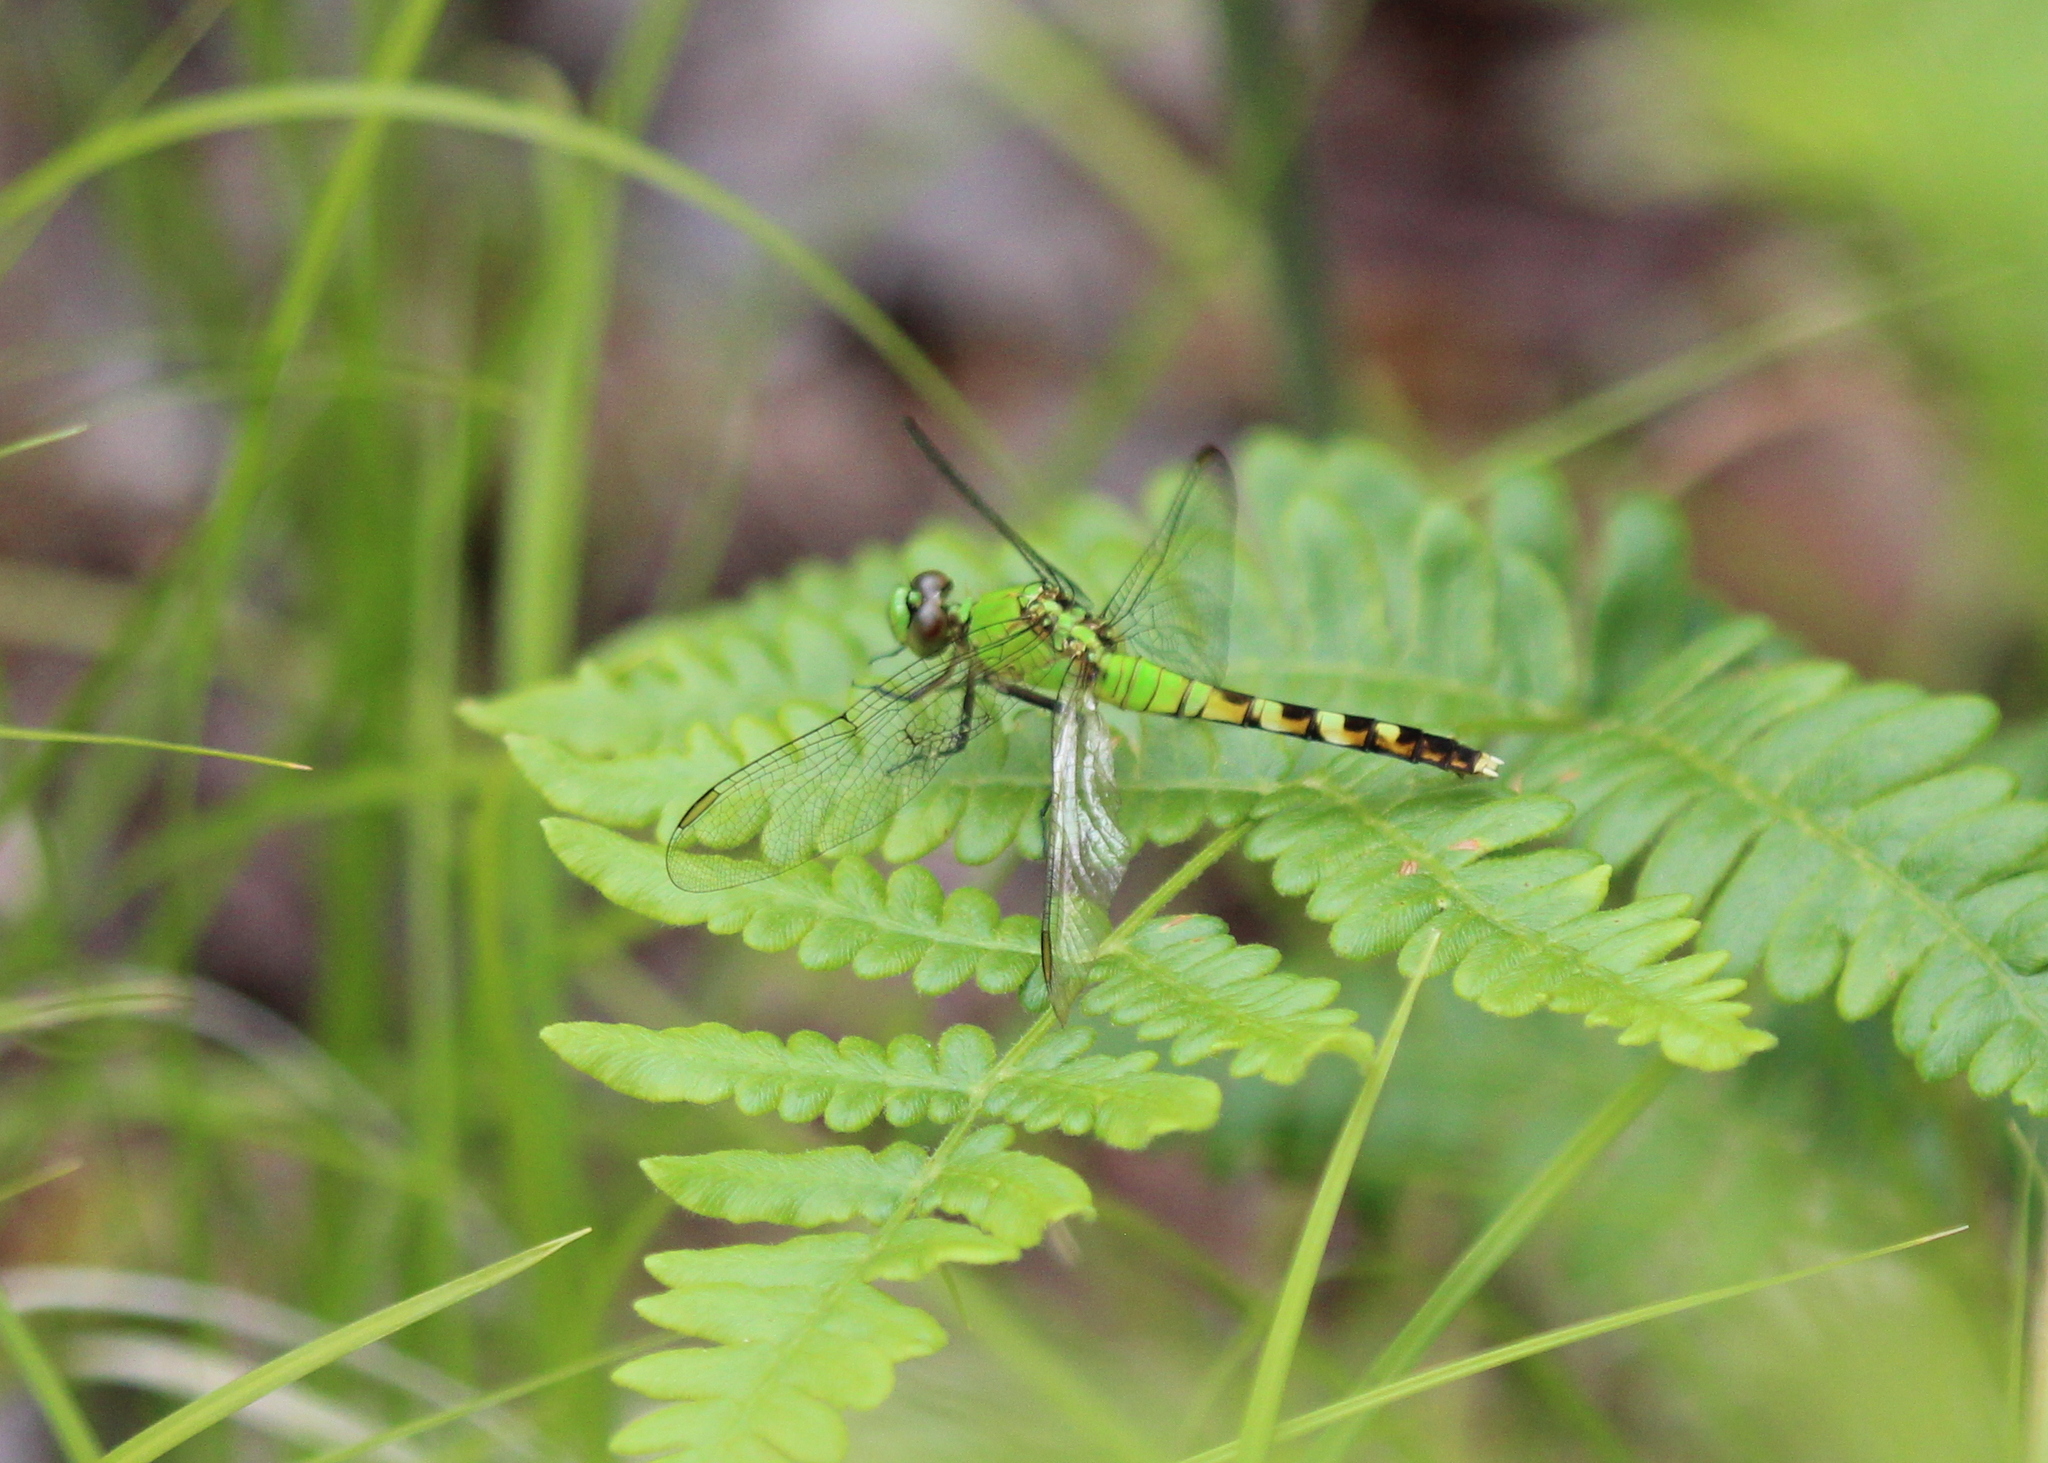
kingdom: Animalia
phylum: Arthropoda
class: Insecta
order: Odonata
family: Libellulidae
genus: Erythemis
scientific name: Erythemis simplicicollis
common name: Eastern pondhawk
